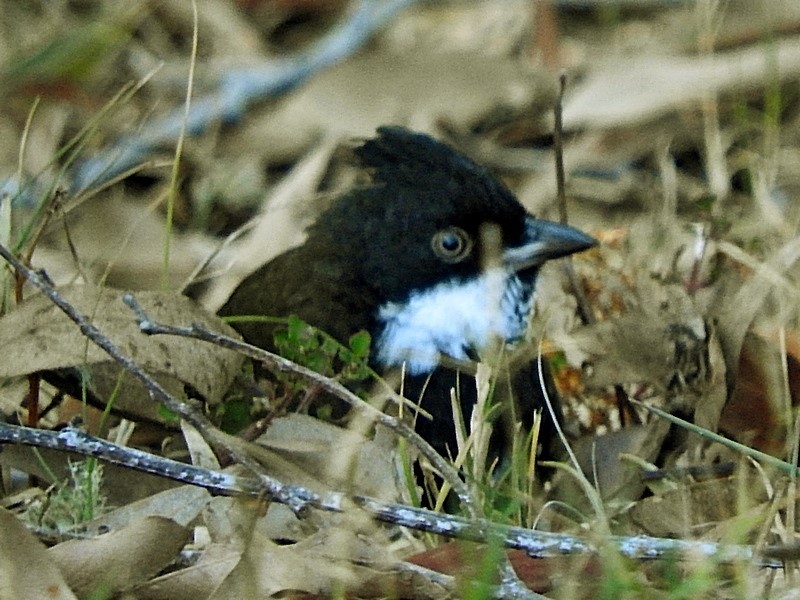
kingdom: Animalia
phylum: Chordata
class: Aves
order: Passeriformes
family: Psophodidae
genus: Psophodes
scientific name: Psophodes olivaceus
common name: Eastern whipbird
